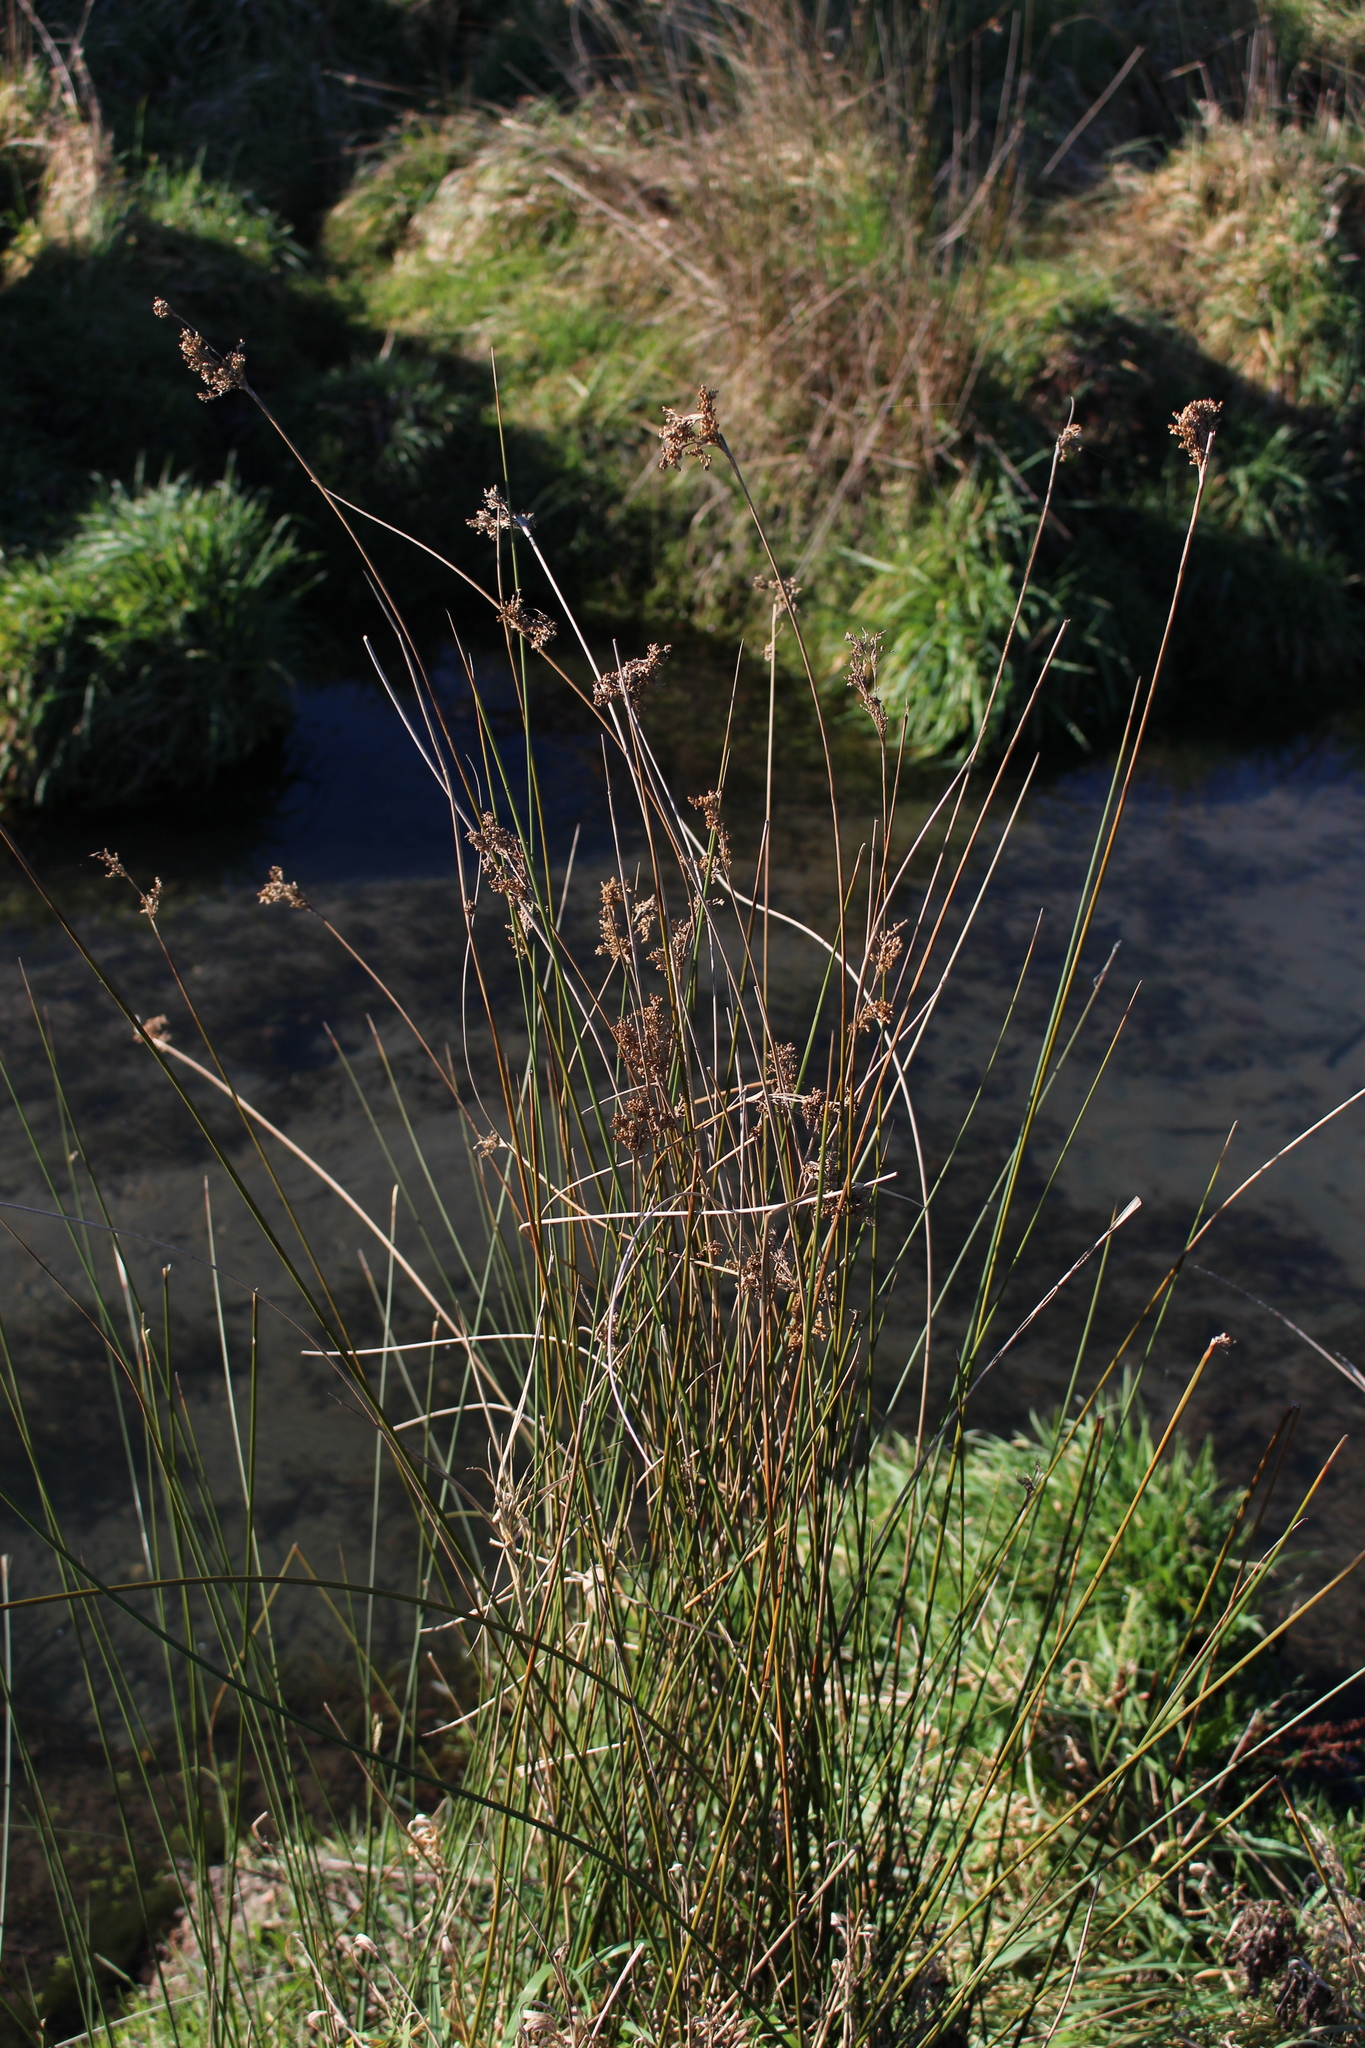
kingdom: Plantae
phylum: Tracheophyta
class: Liliopsida
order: Poales
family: Juncaceae
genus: Juncus
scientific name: Juncus edgariae
